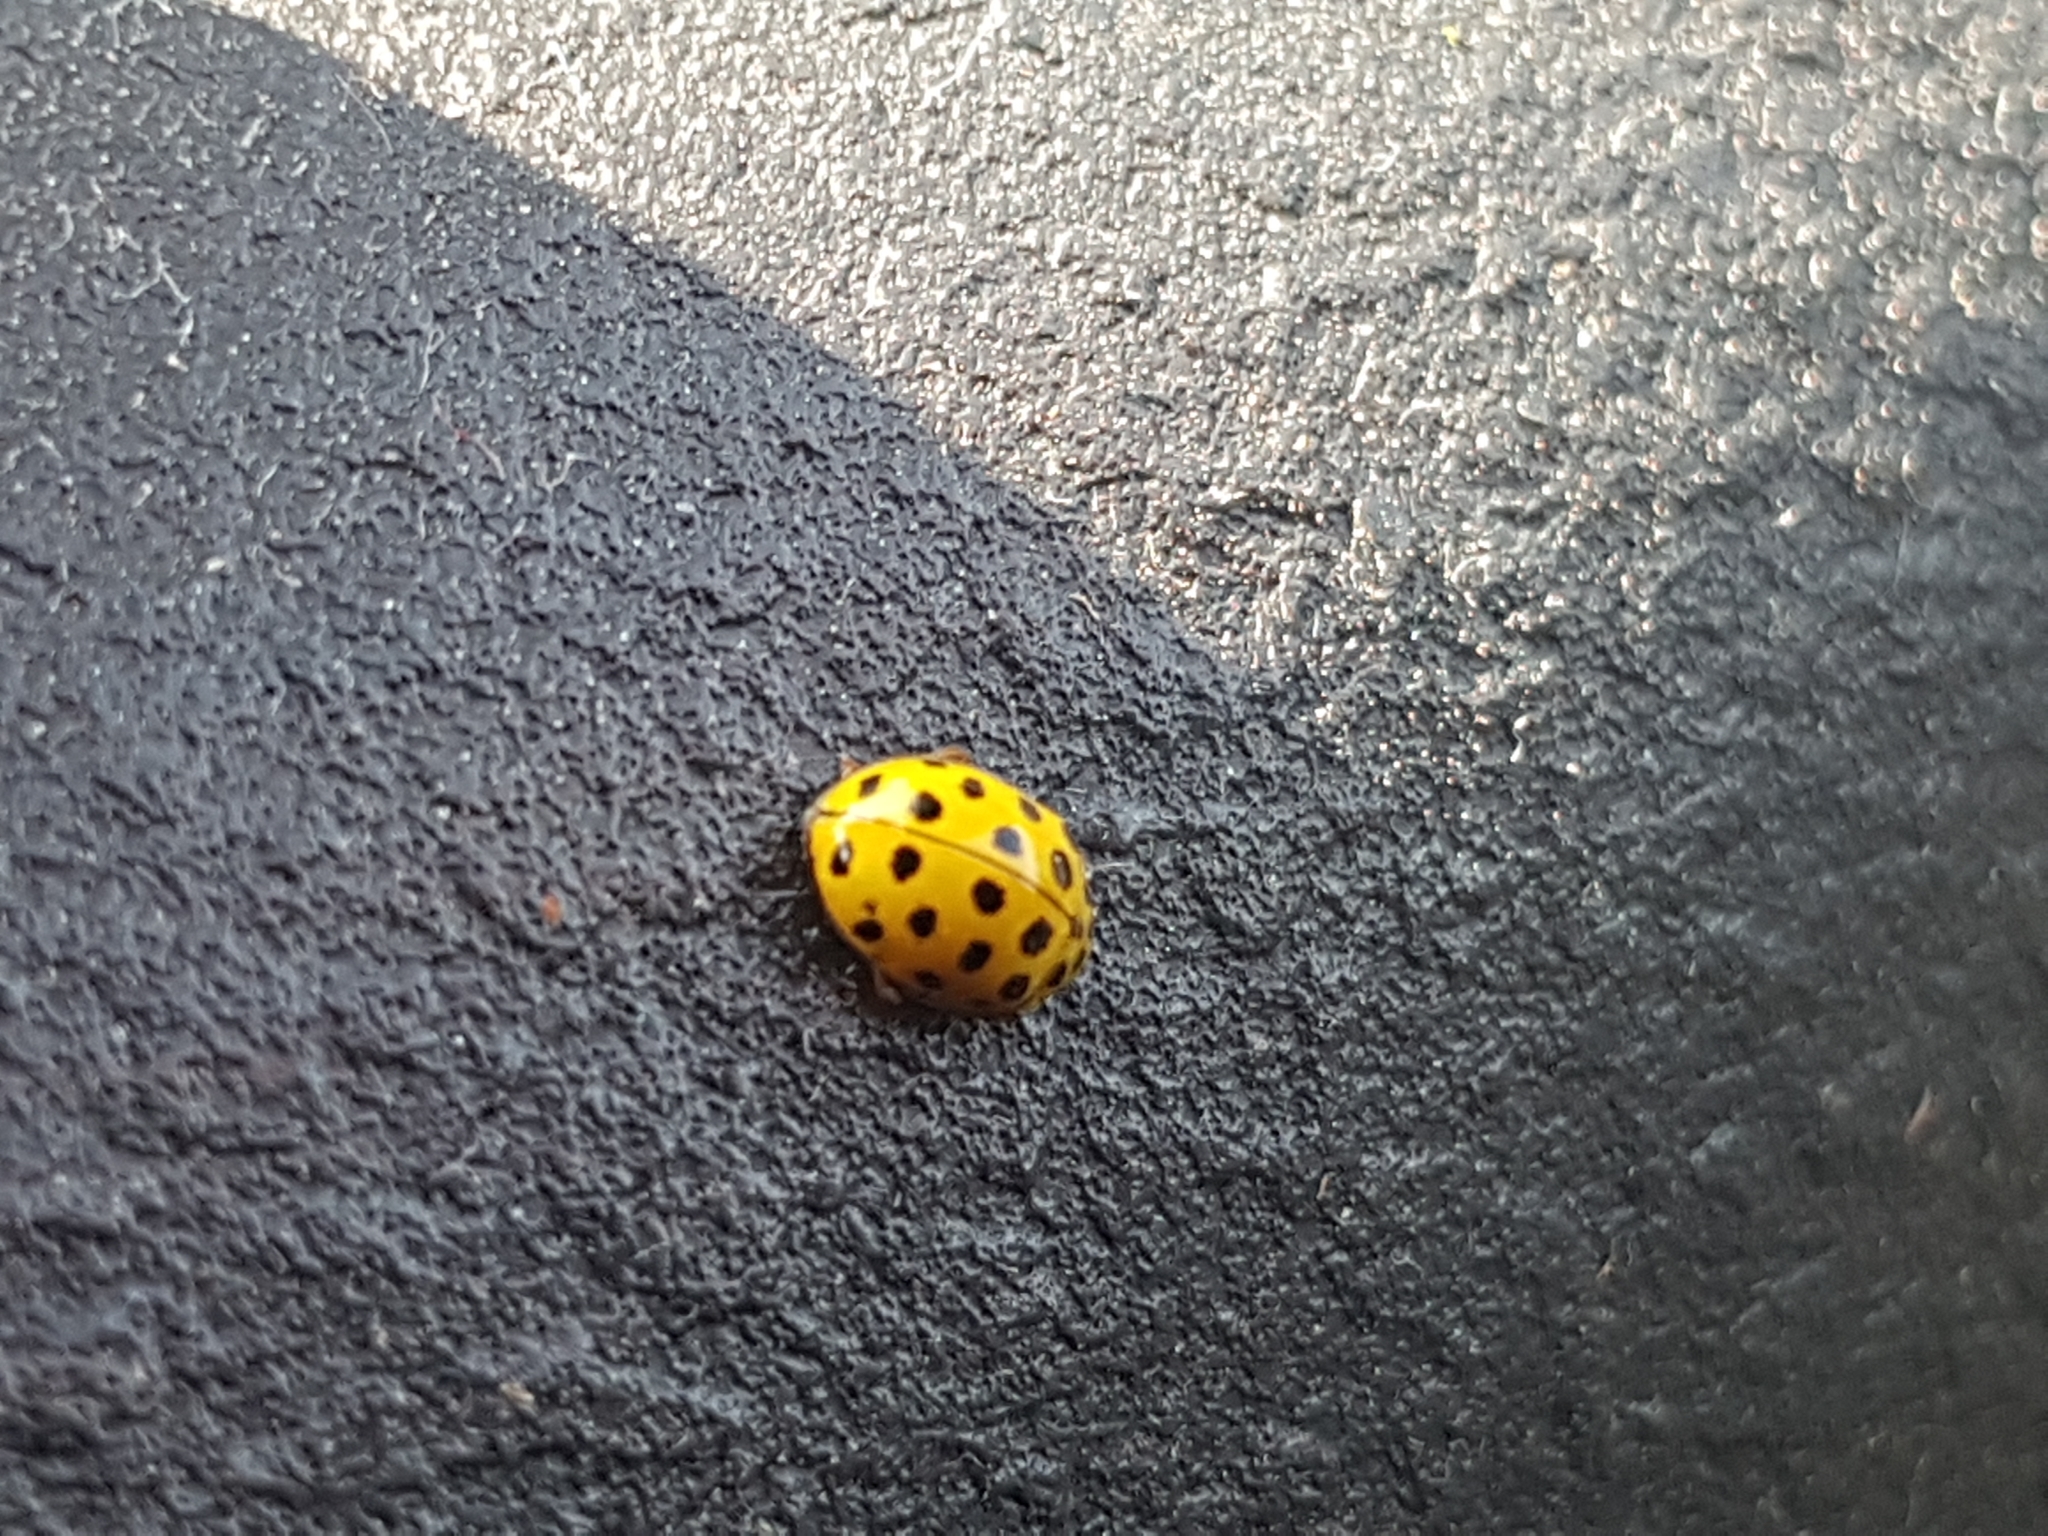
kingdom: Animalia
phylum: Arthropoda
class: Insecta
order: Coleoptera
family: Coccinellidae
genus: Psyllobora
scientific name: Psyllobora vigintiduopunctata
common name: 22-spot ladybird
